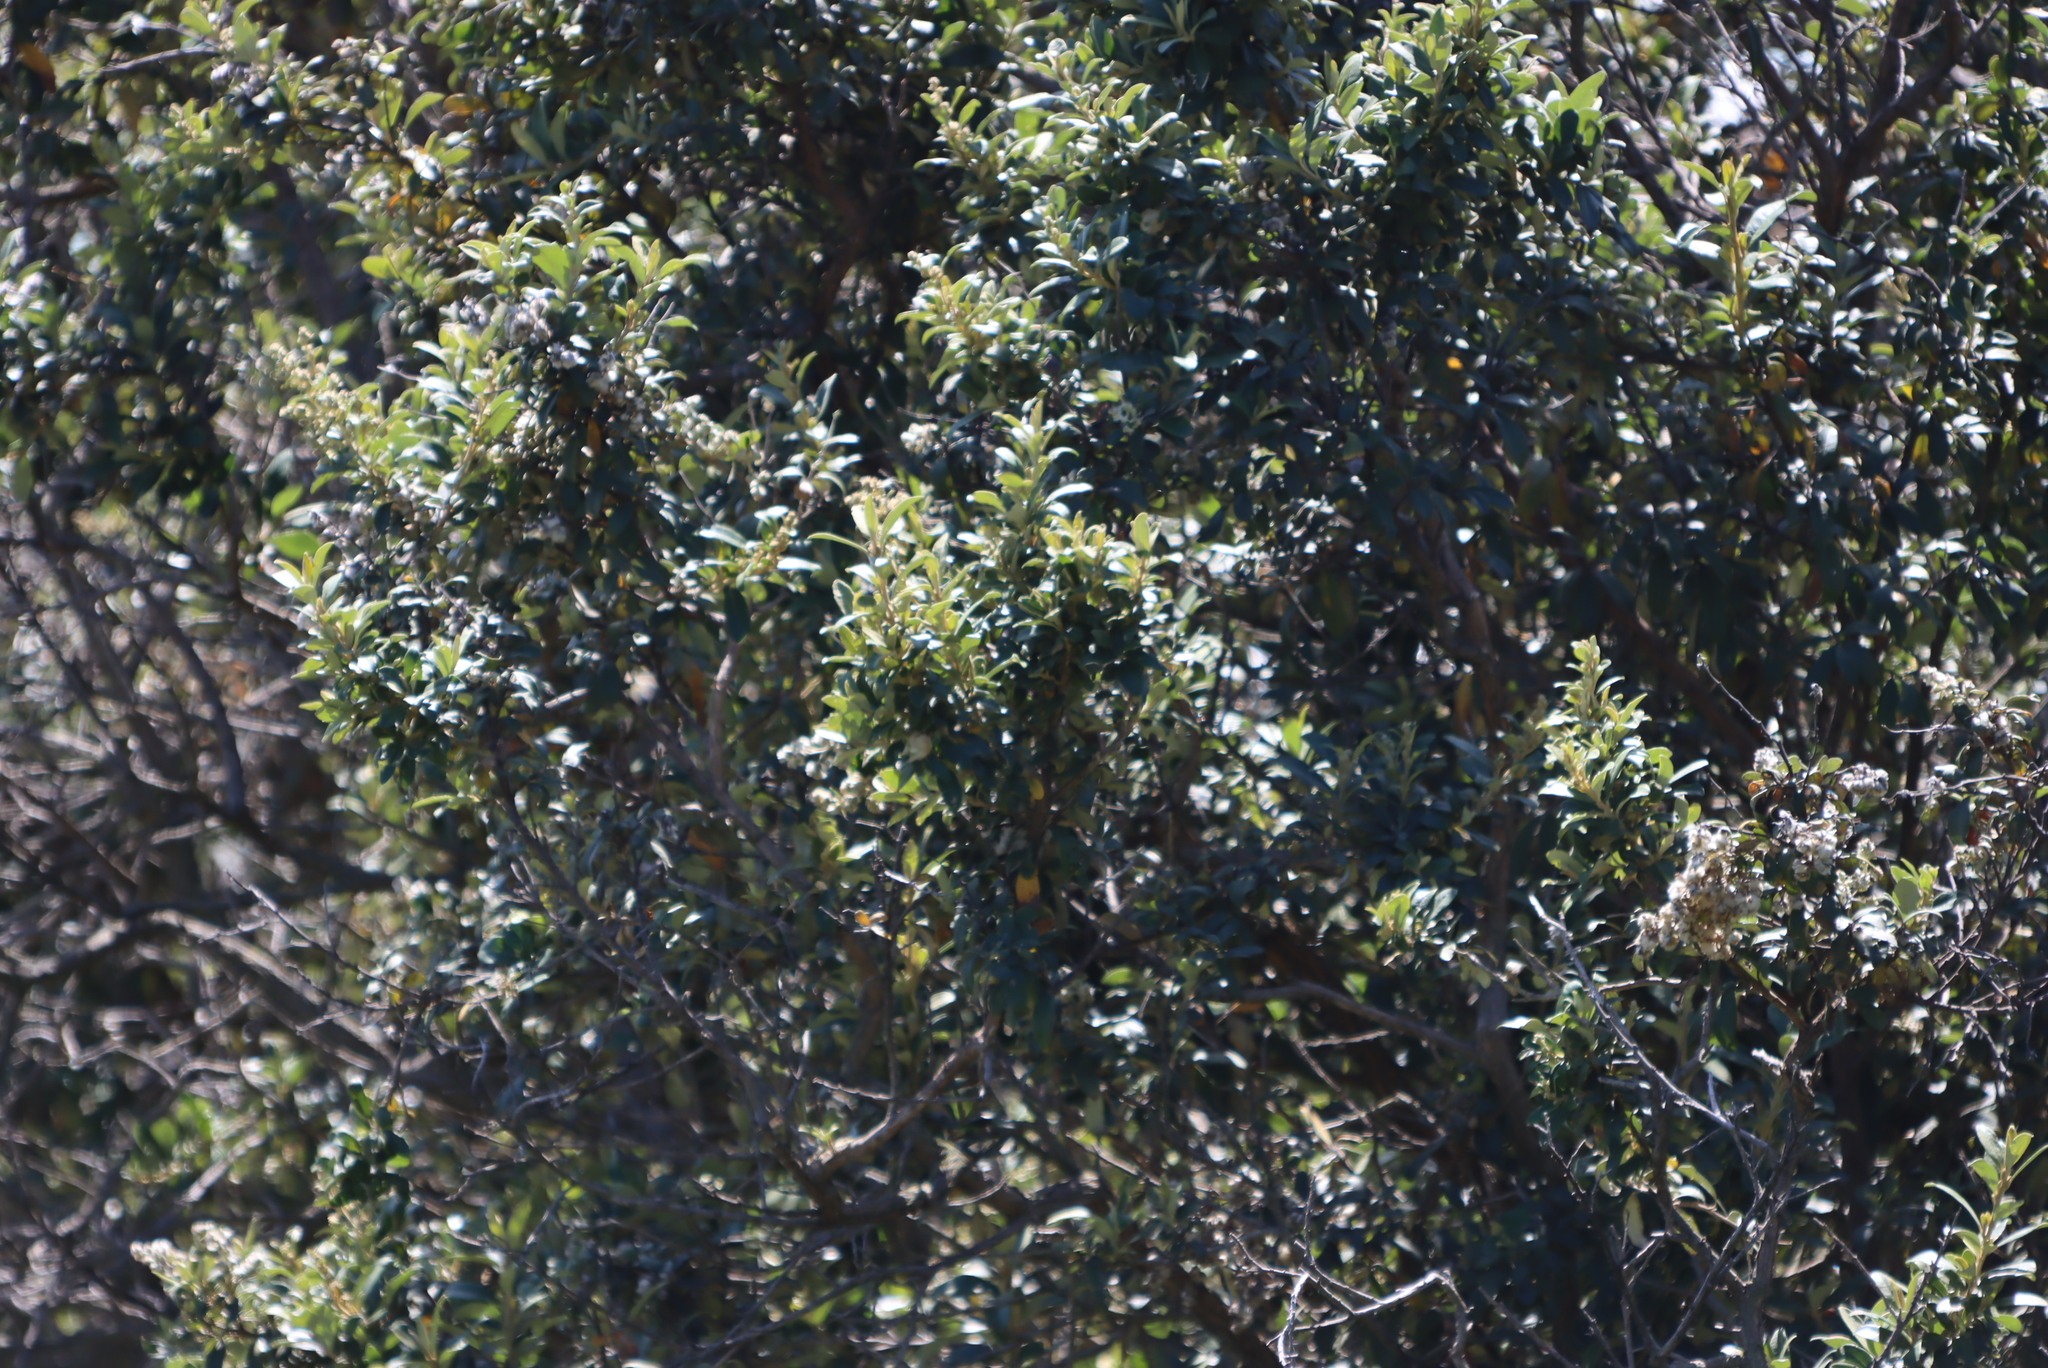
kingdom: Plantae
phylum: Tracheophyta
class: Magnoliopsida
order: Asterales
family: Asteraceae
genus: Tarchonanthus
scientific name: Tarchonanthus littoralis
